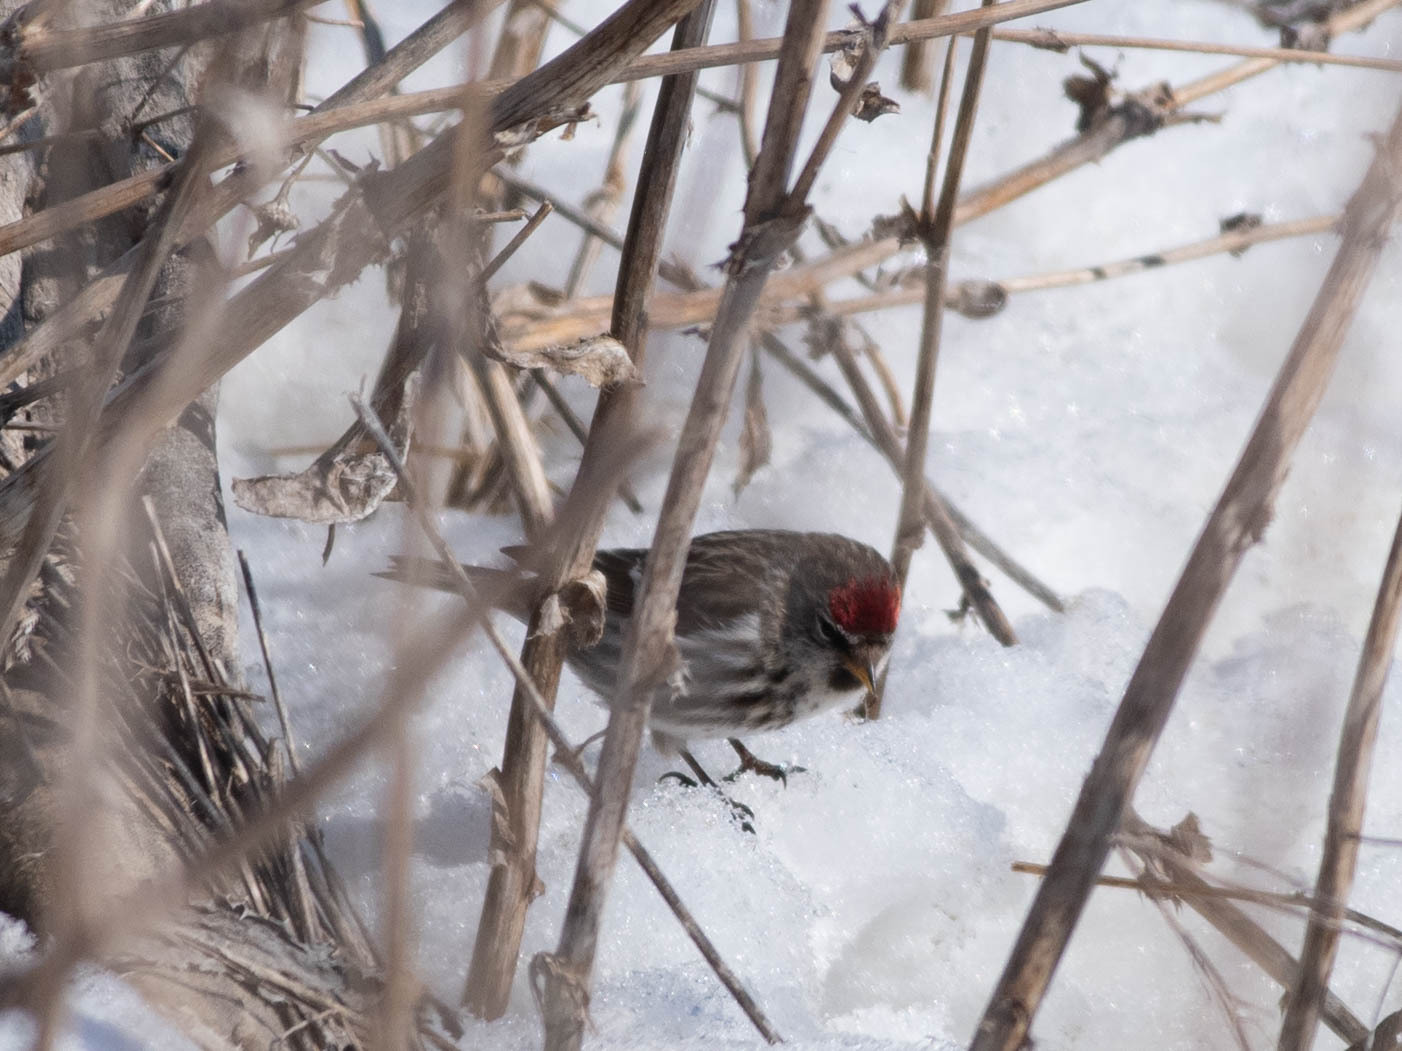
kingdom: Animalia
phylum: Chordata
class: Aves
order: Passeriformes
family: Fringillidae
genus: Acanthis
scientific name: Acanthis flammea
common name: Common redpoll
